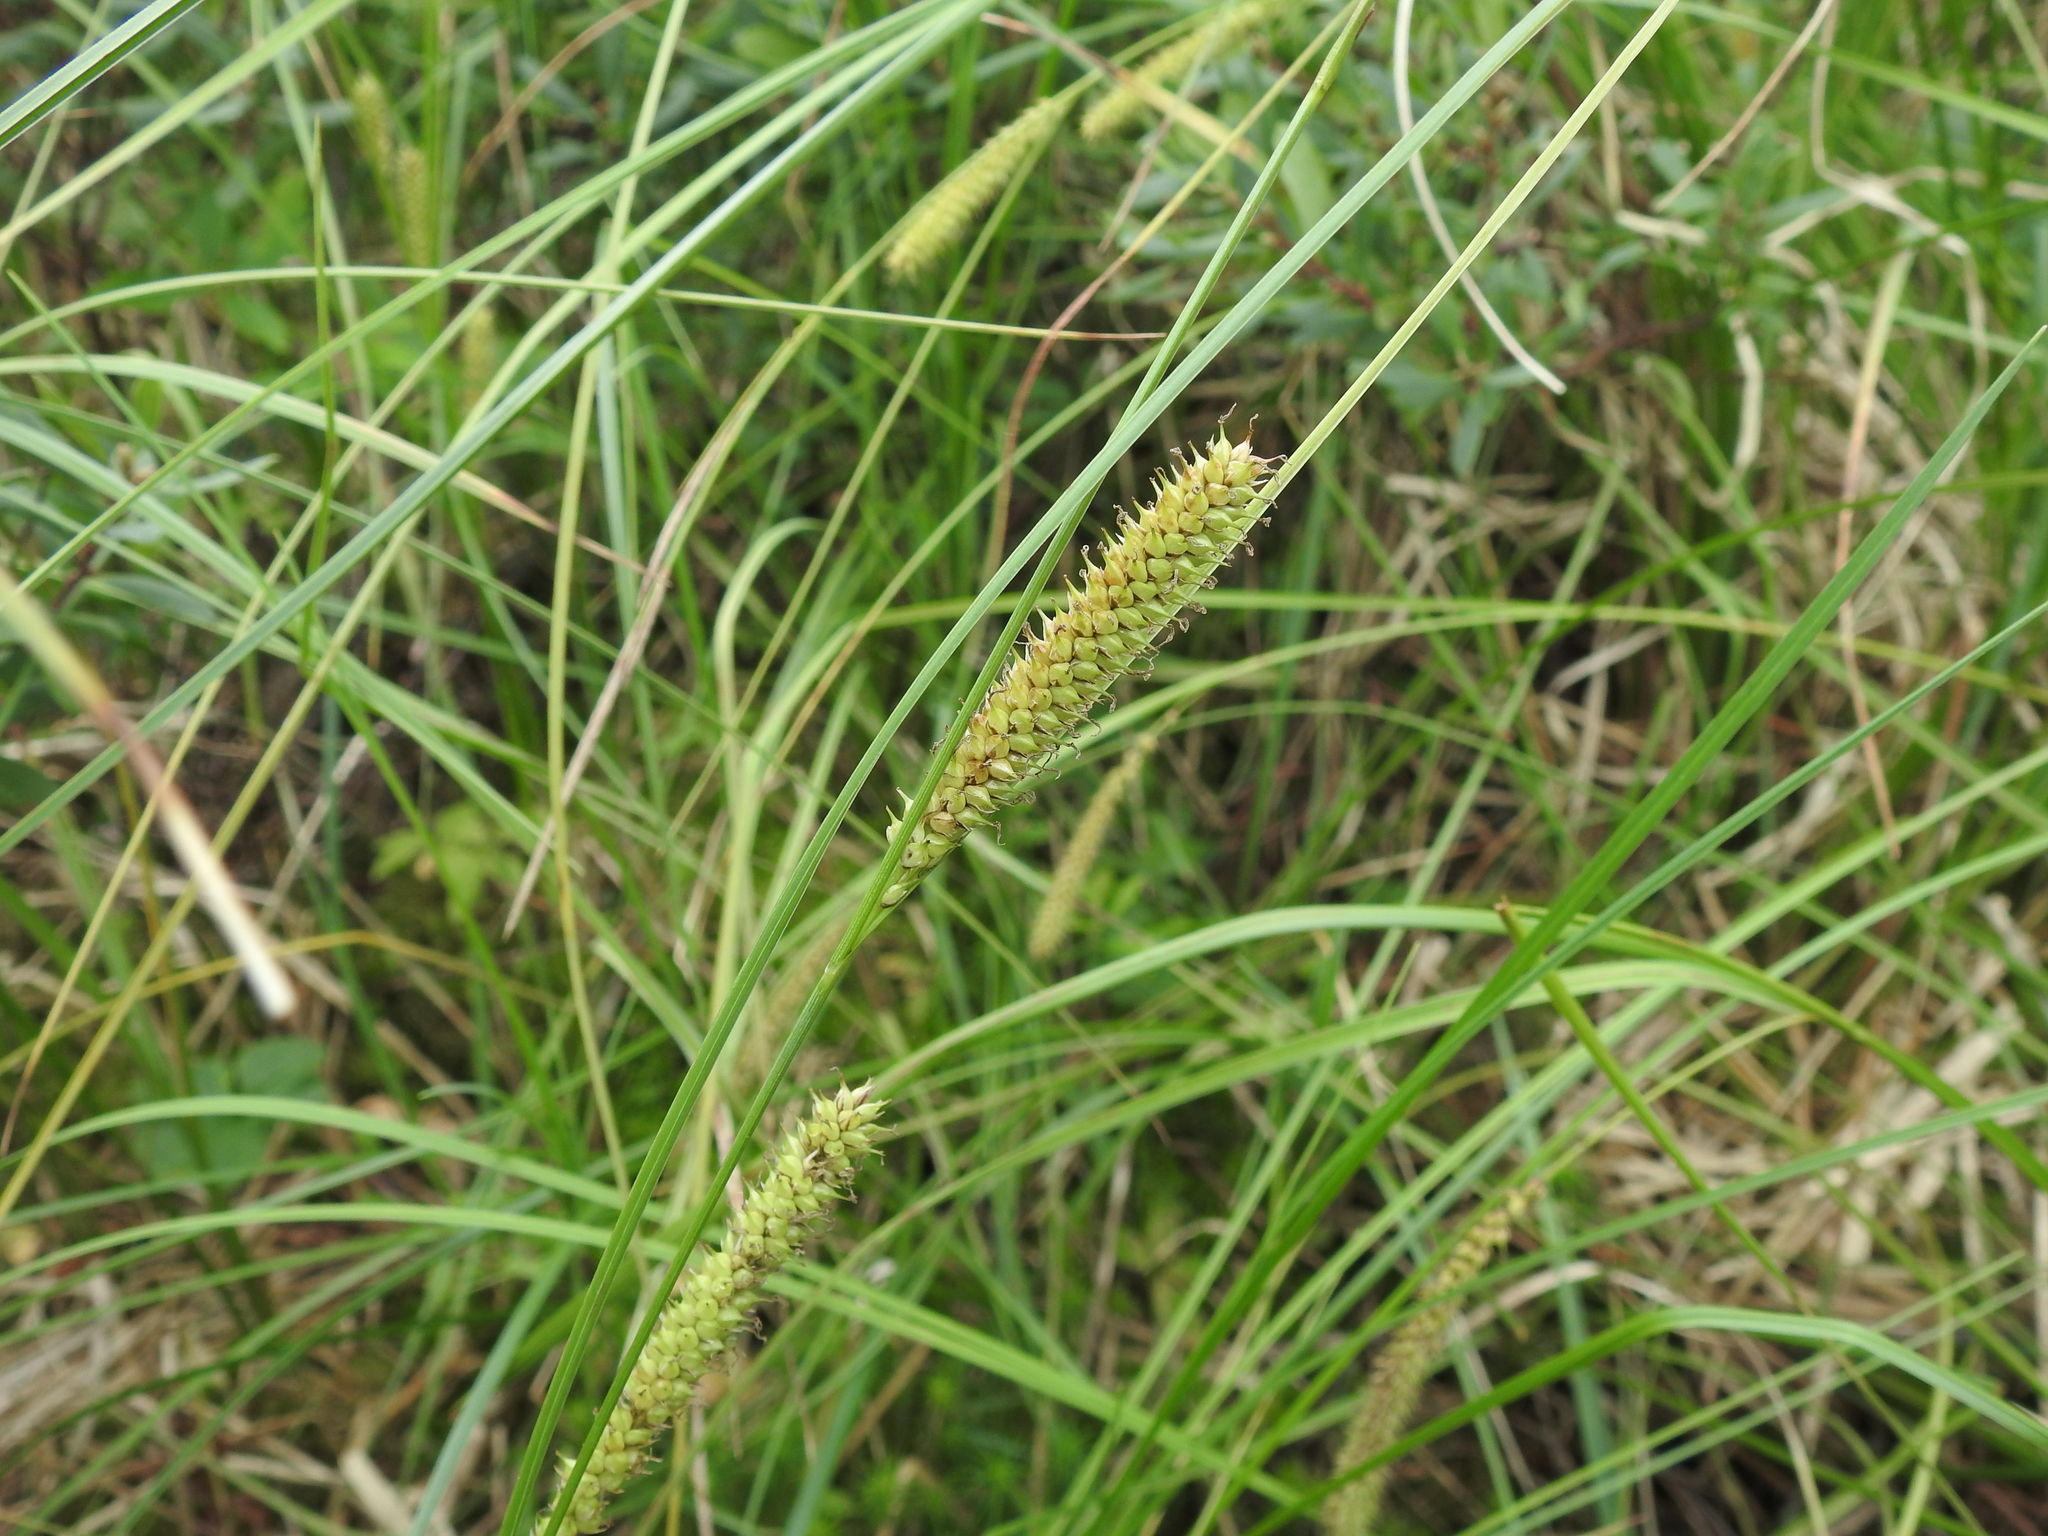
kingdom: Plantae
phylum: Tracheophyta
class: Liliopsida
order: Poales
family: Cyperaceae
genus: Carex
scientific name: Carex rostrata
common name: Bottle sedge
